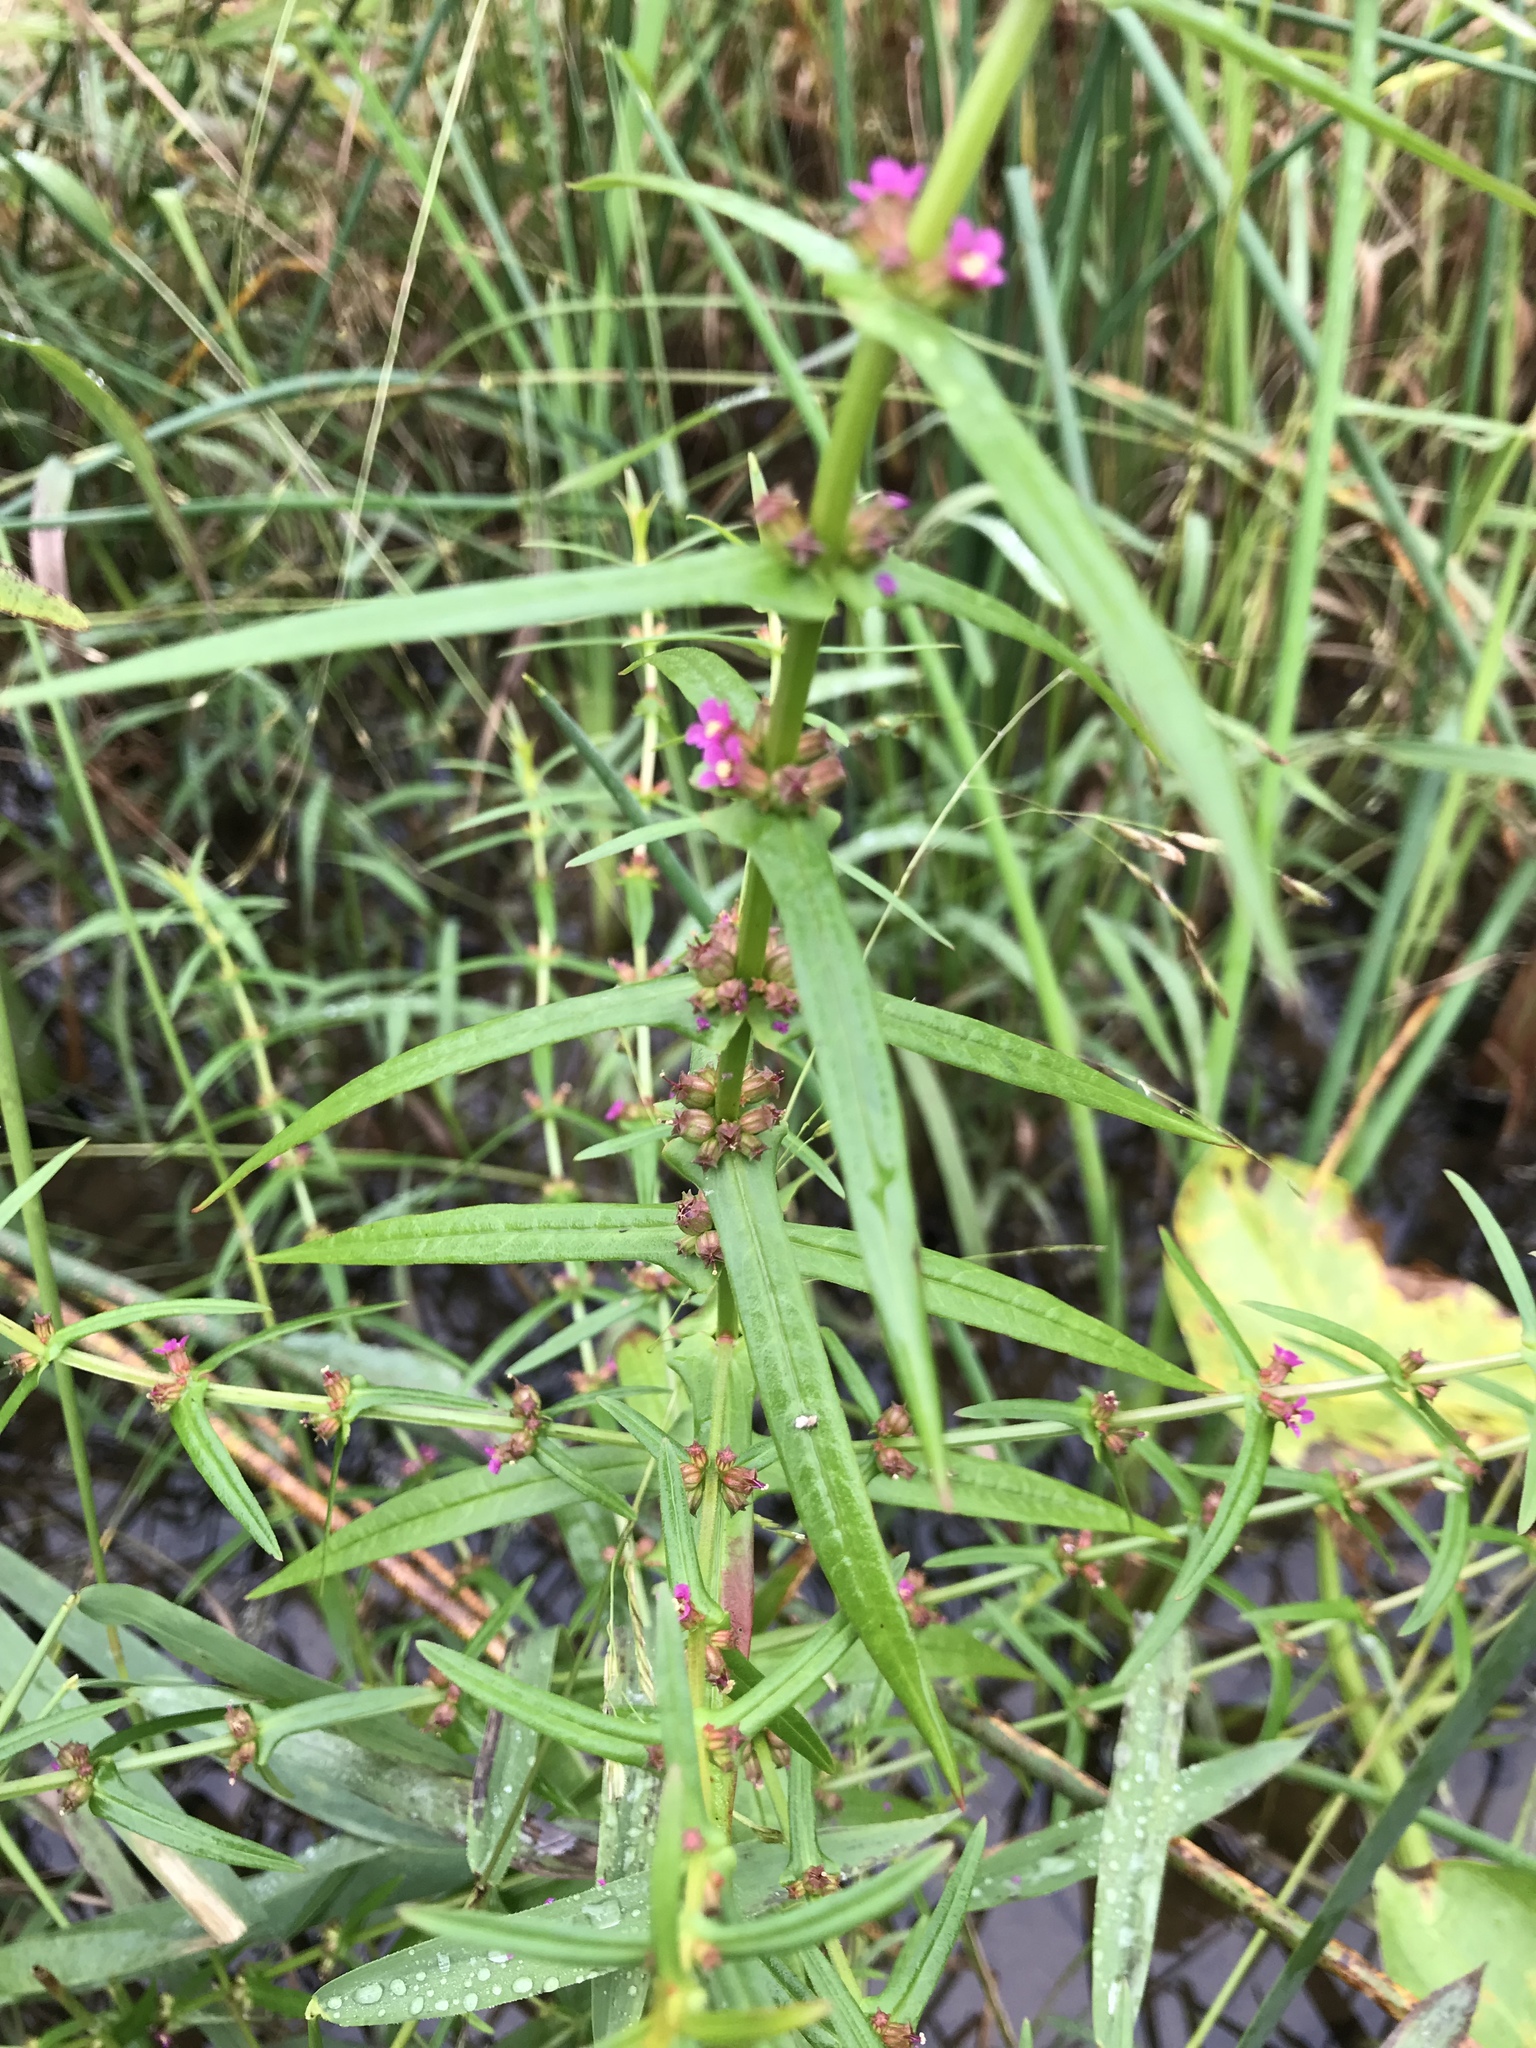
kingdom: Plantae
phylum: Tracheophyta
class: Magnoliopsida
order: Myrtales
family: Lythraceae
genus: Ammannia
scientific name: Ammannia coccinea
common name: Valley redstem
